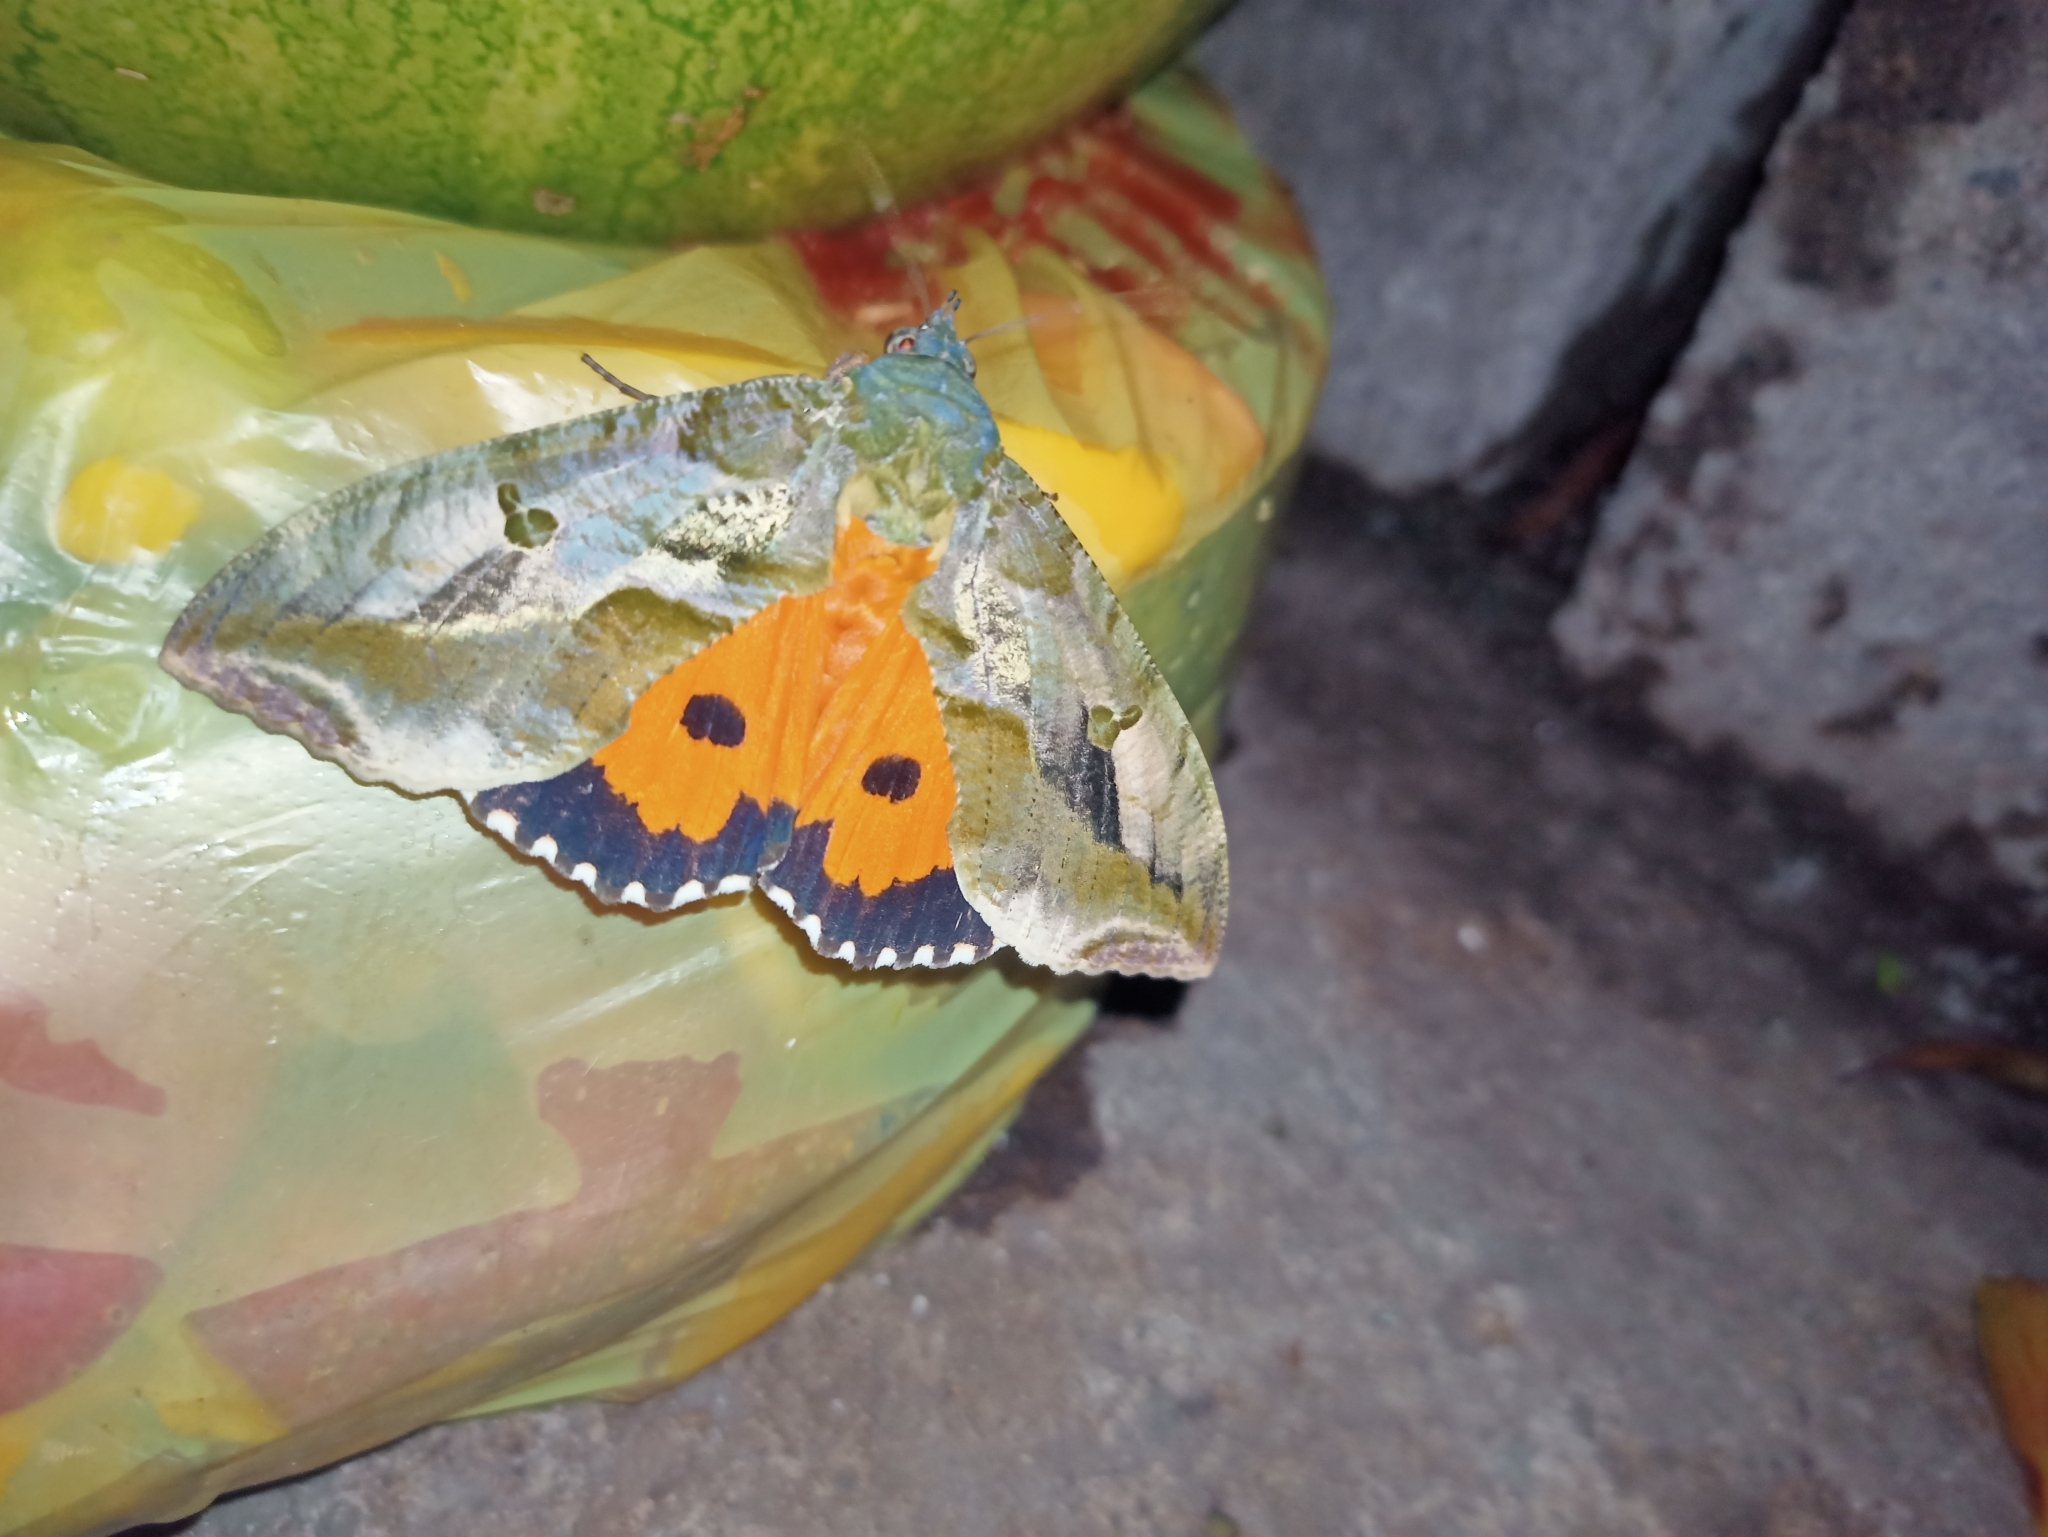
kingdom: Animalia
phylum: Arthropoda
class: Insecta
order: Lepidoptera
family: Erebidae
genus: Eudocima
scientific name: Eudocima apta
